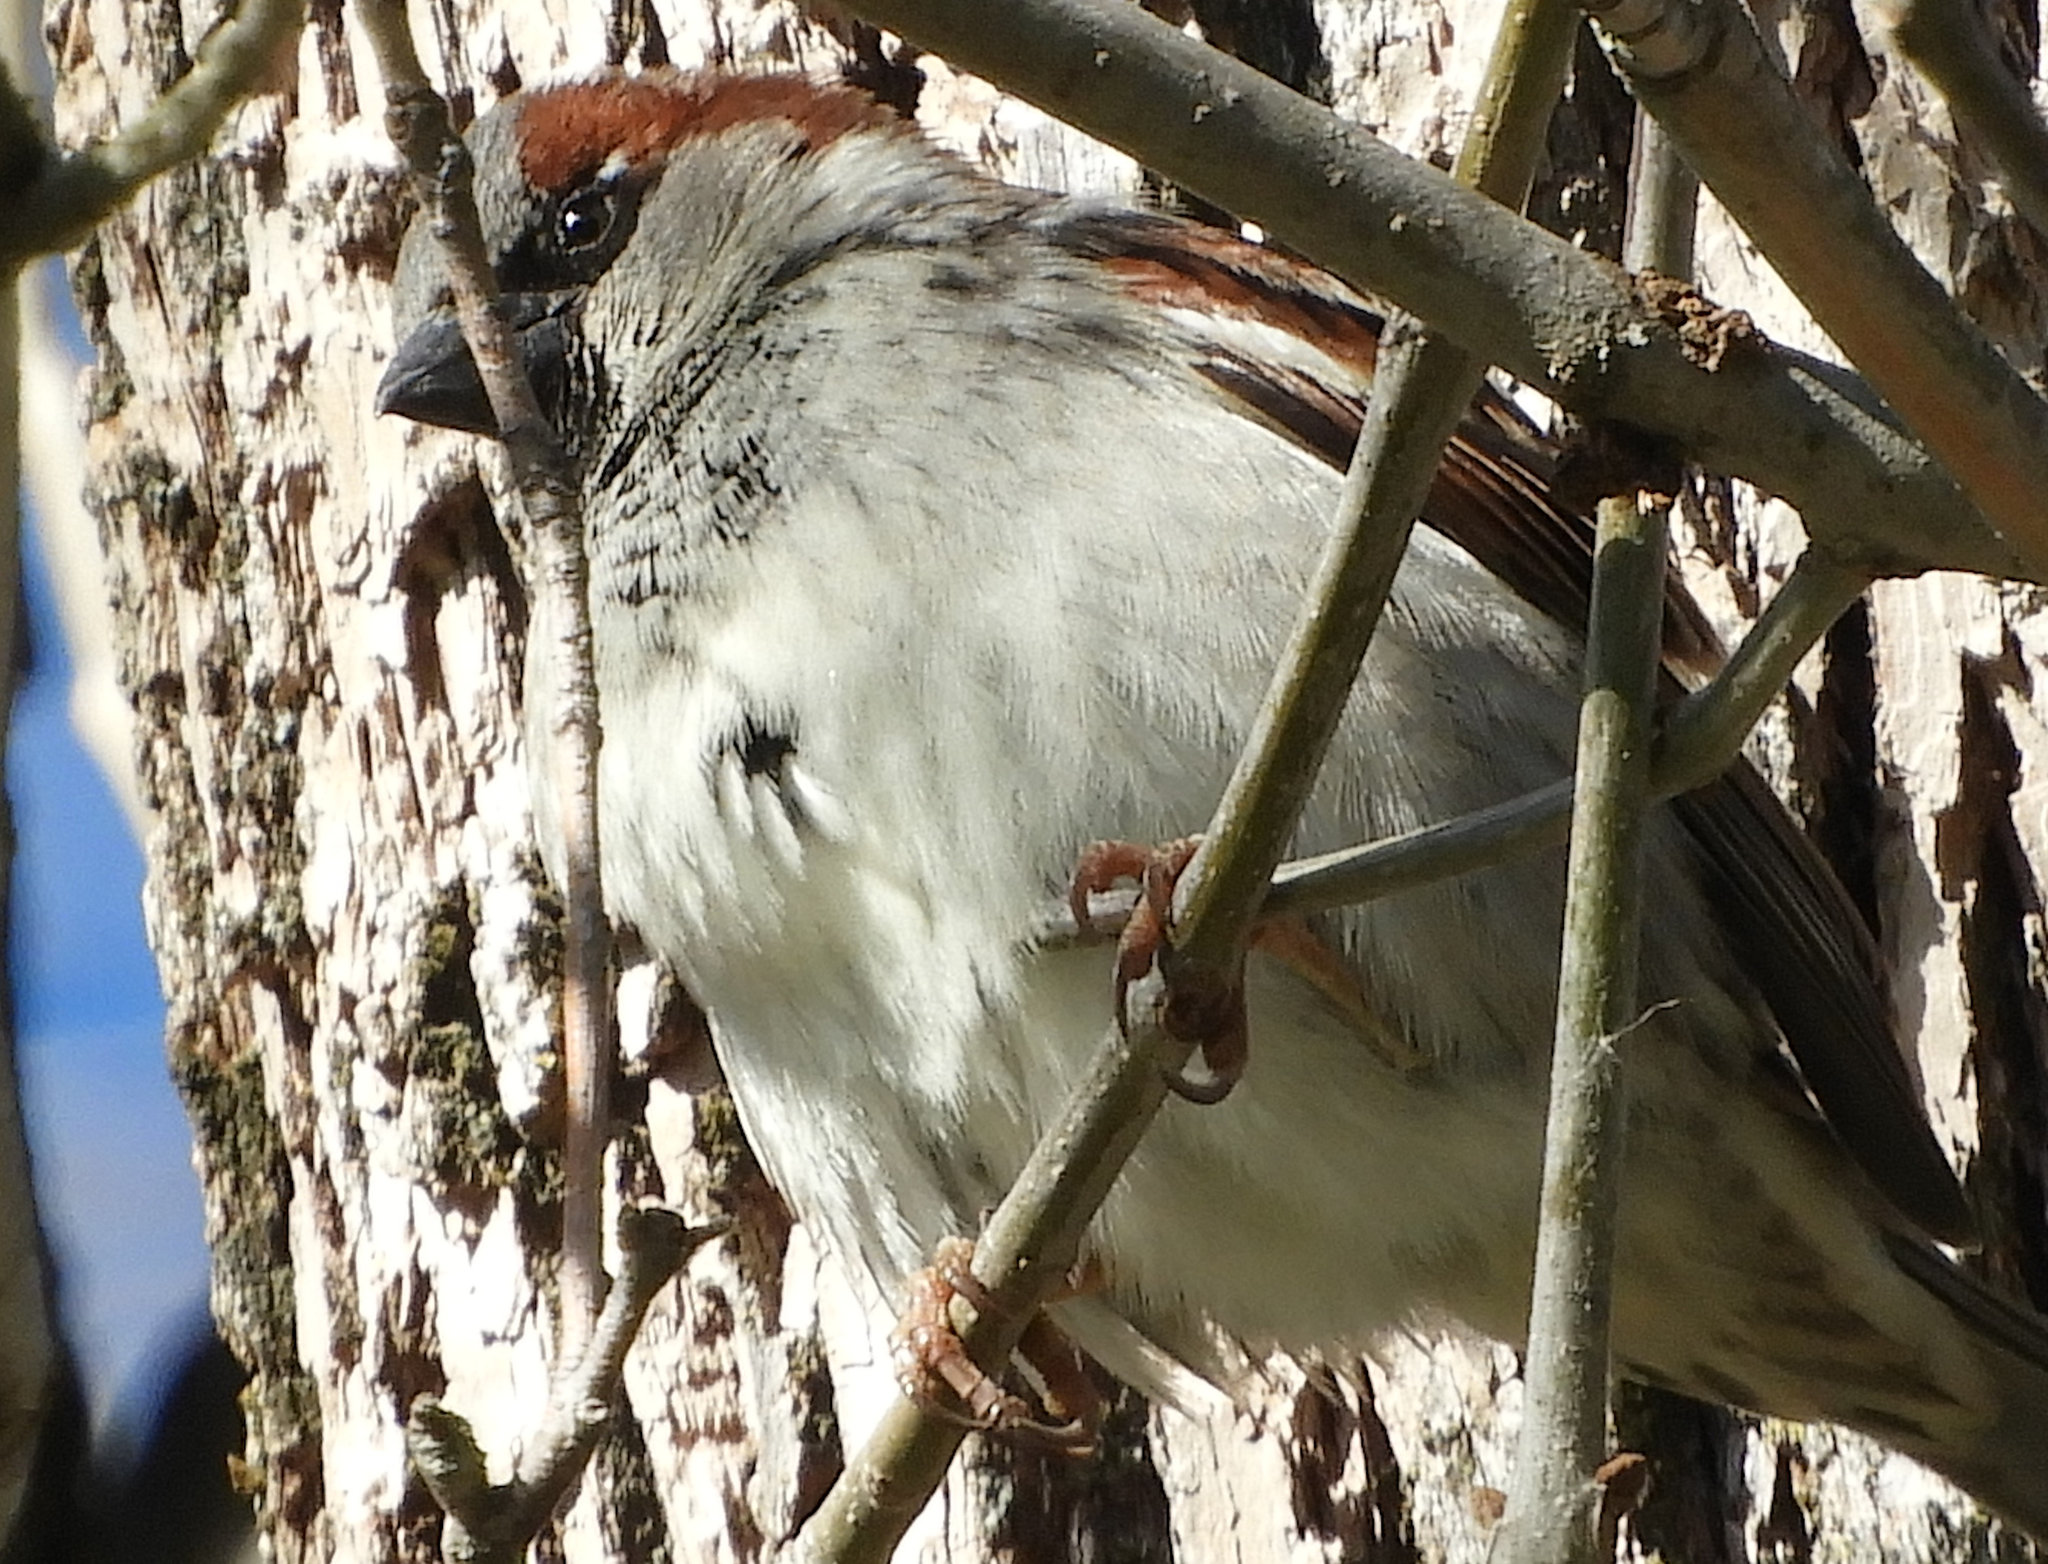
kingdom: Animalia
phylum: Chordata
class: Aves
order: Passeriformes
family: Passeridae
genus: Passer
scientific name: Passer domesticus
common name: House sparrow
